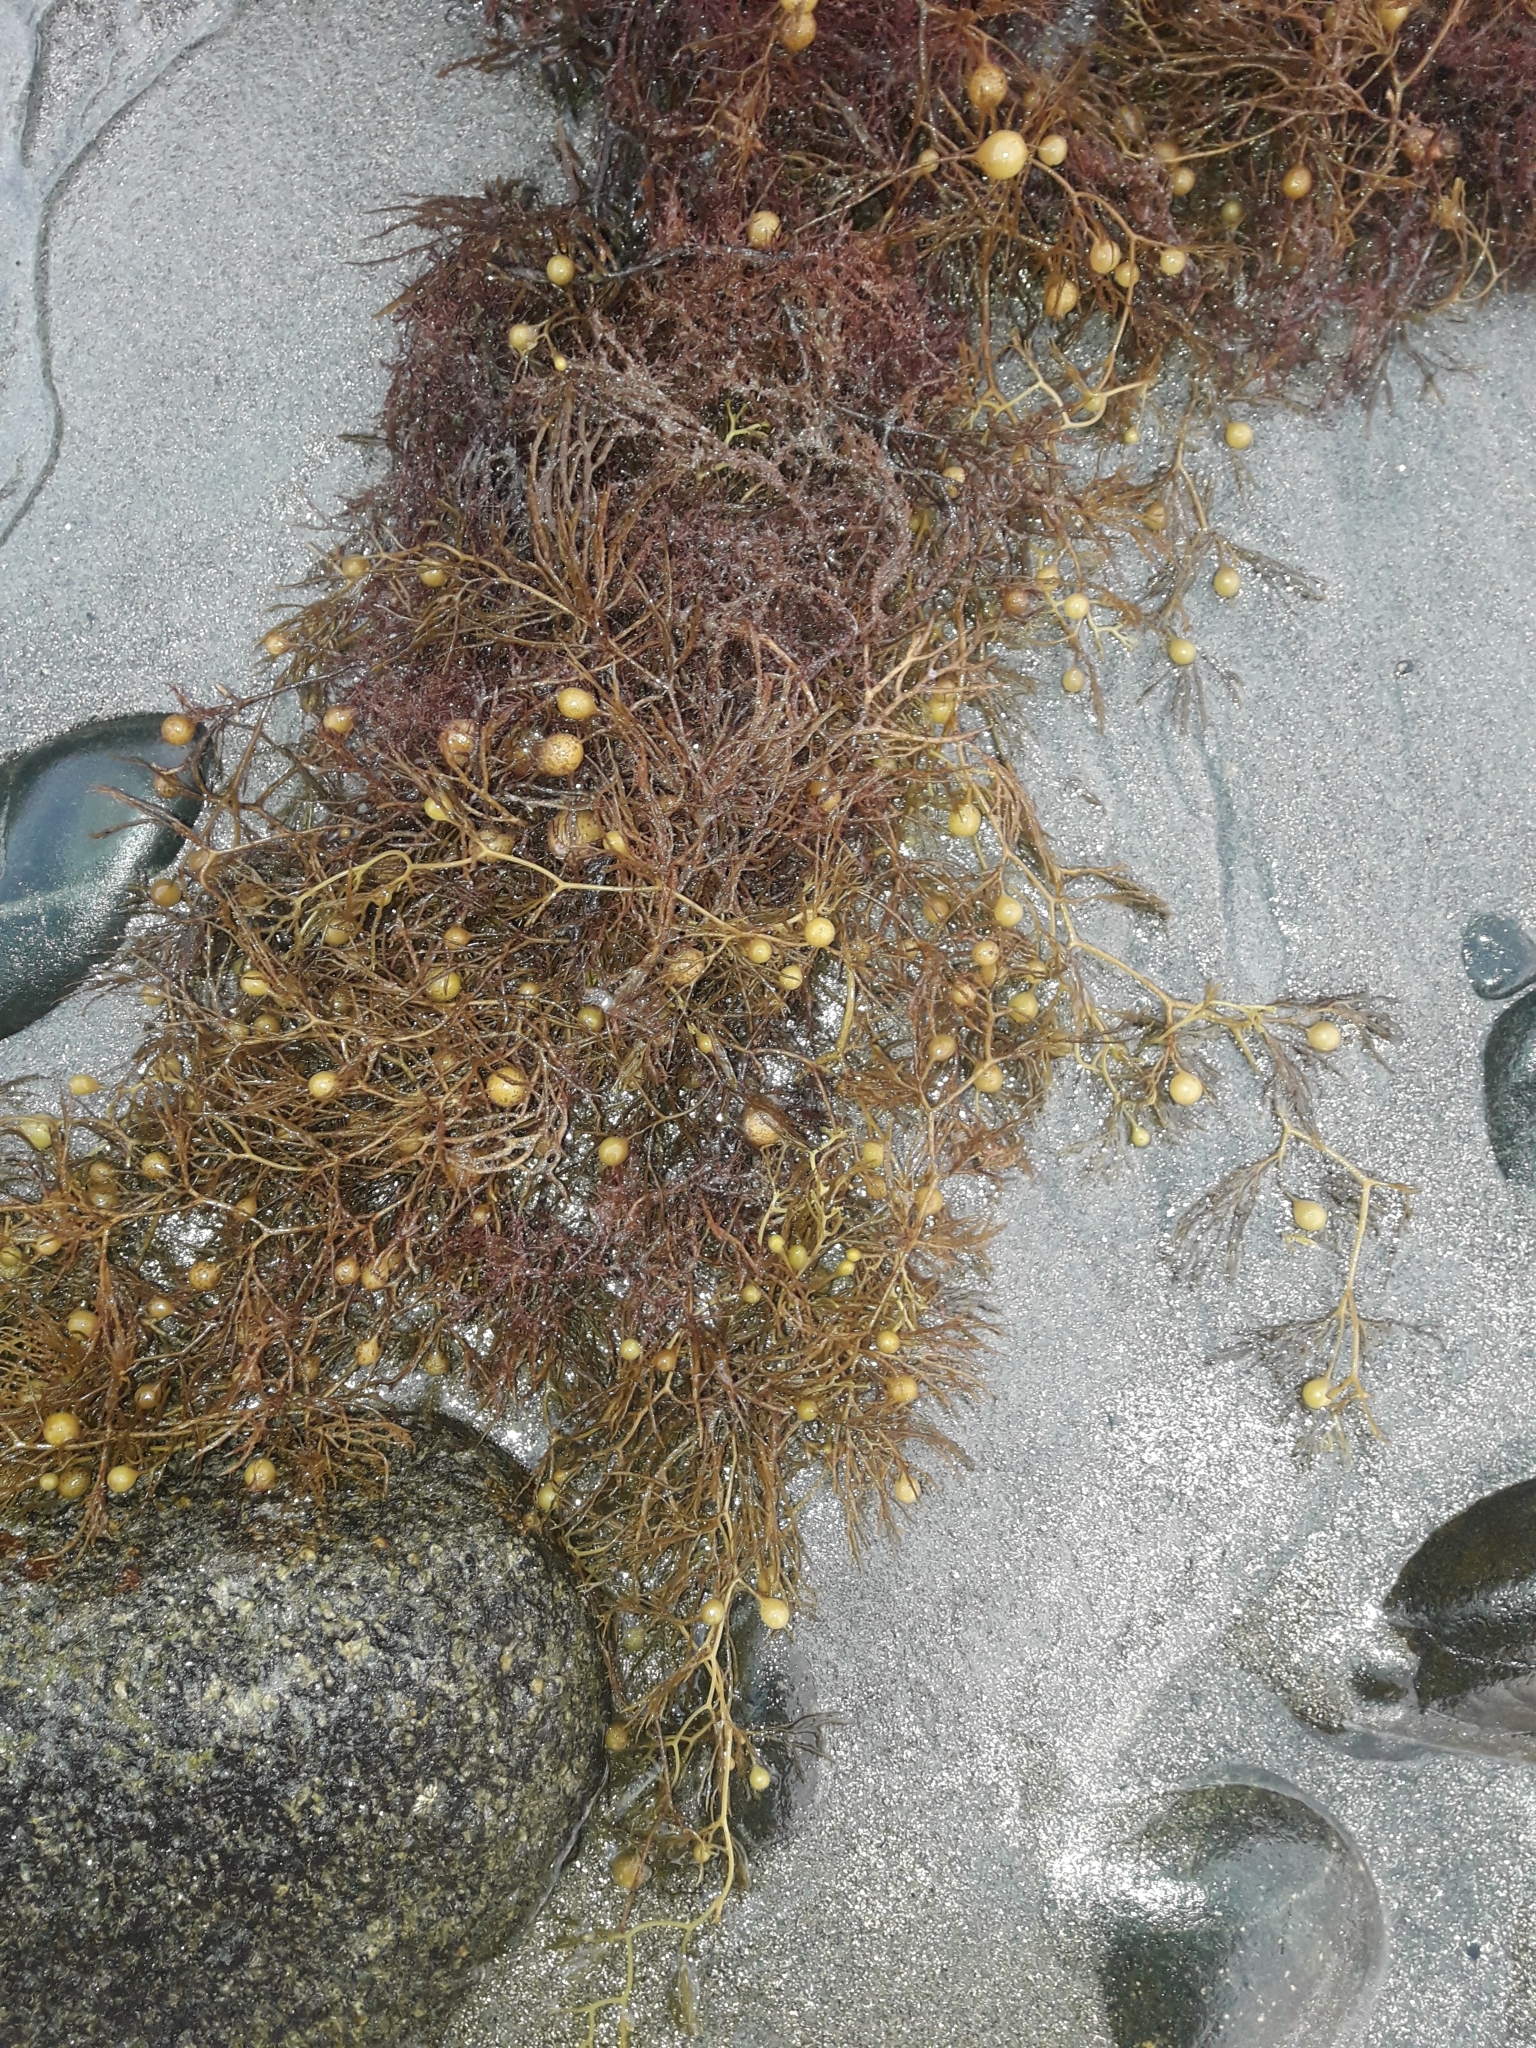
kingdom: Chromista
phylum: Ochrophyta
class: Phaeophyceae
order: Fucales
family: Sargassaceae
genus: Sargassum
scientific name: Sargassum Phyllotricha verruculosa
